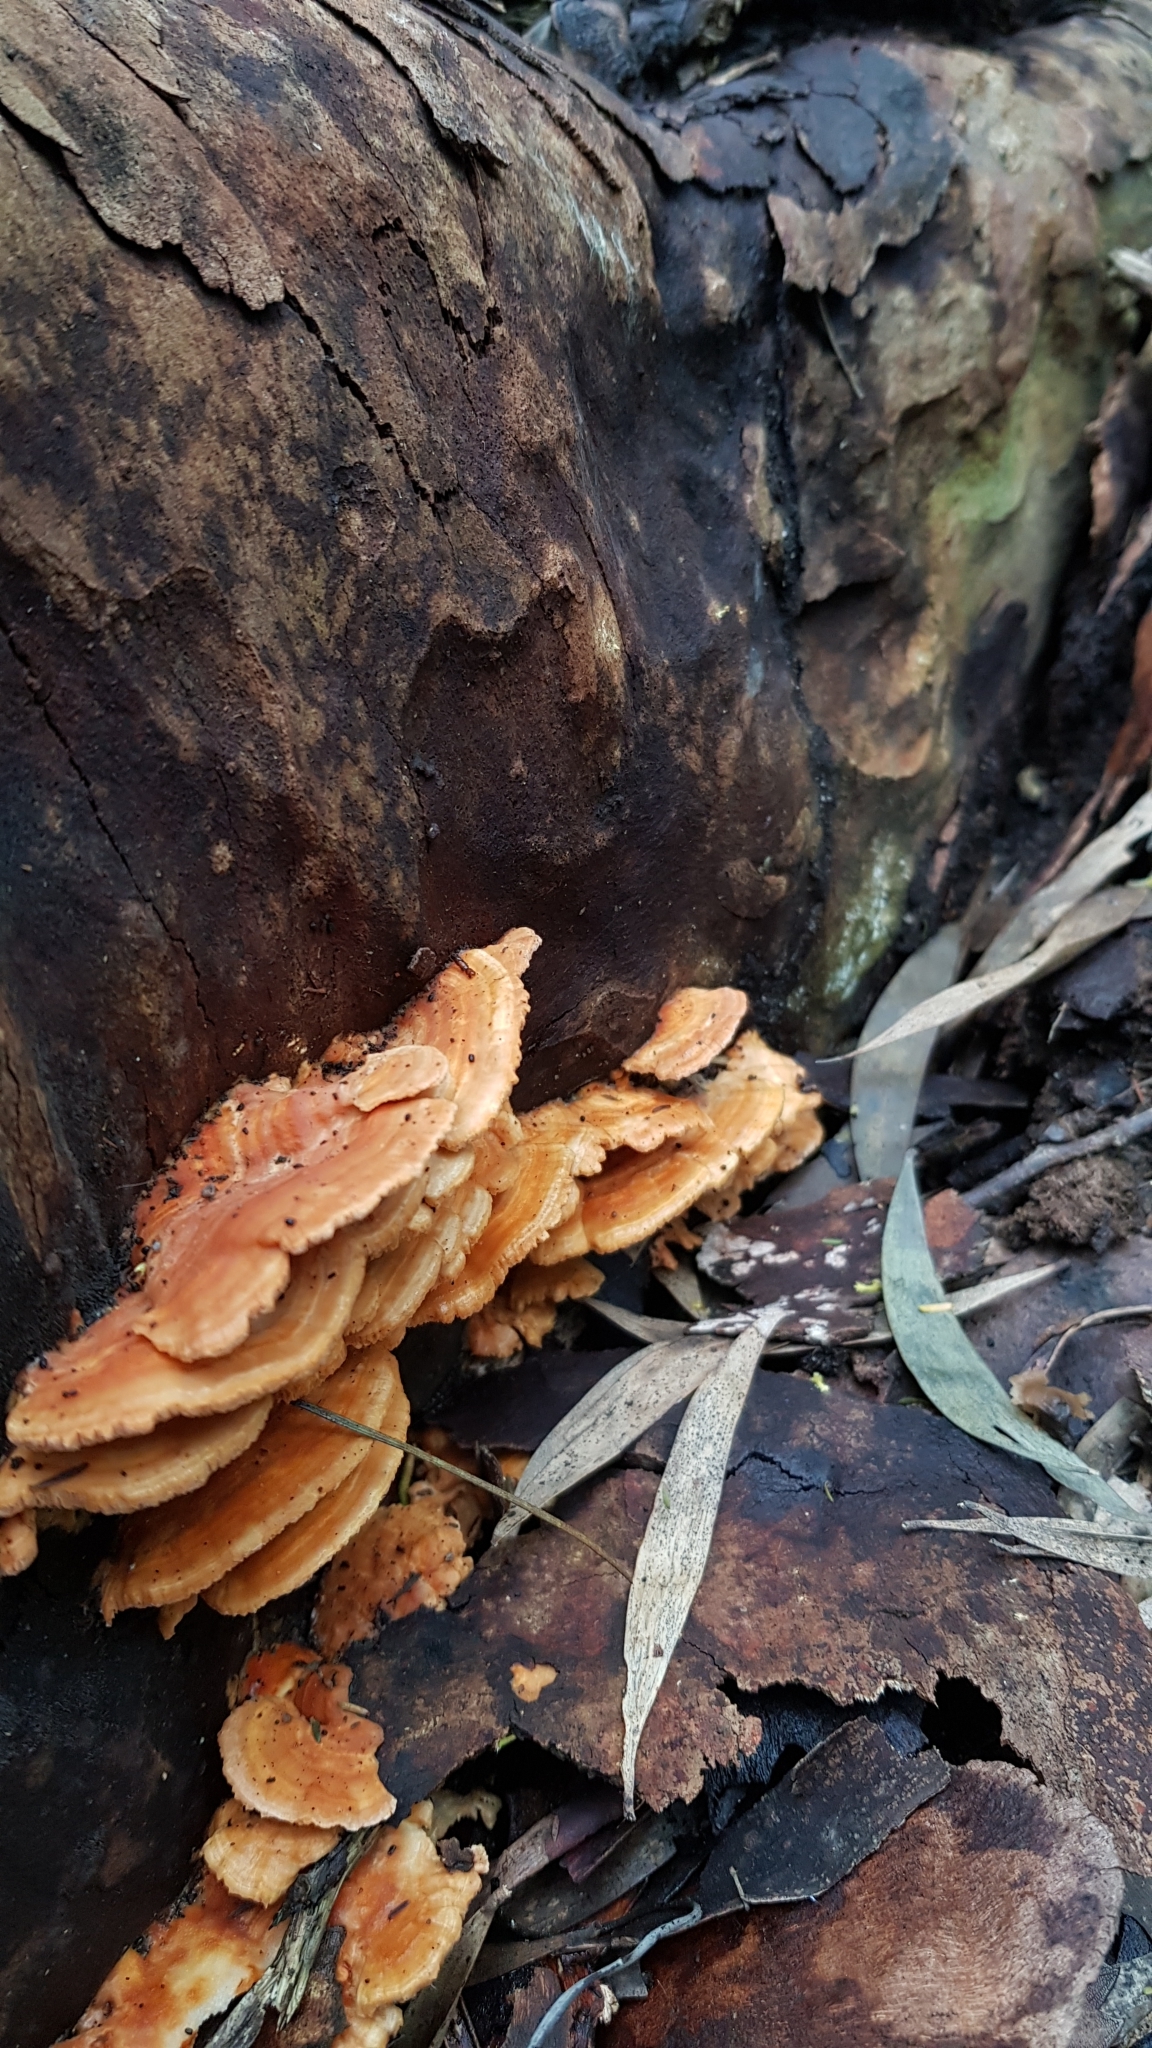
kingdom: Fungi
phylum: Basidiomycota
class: Agaricomycetes
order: Polyporales
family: Cerrenaceae
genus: Cerrena
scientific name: Cerrena zonata
